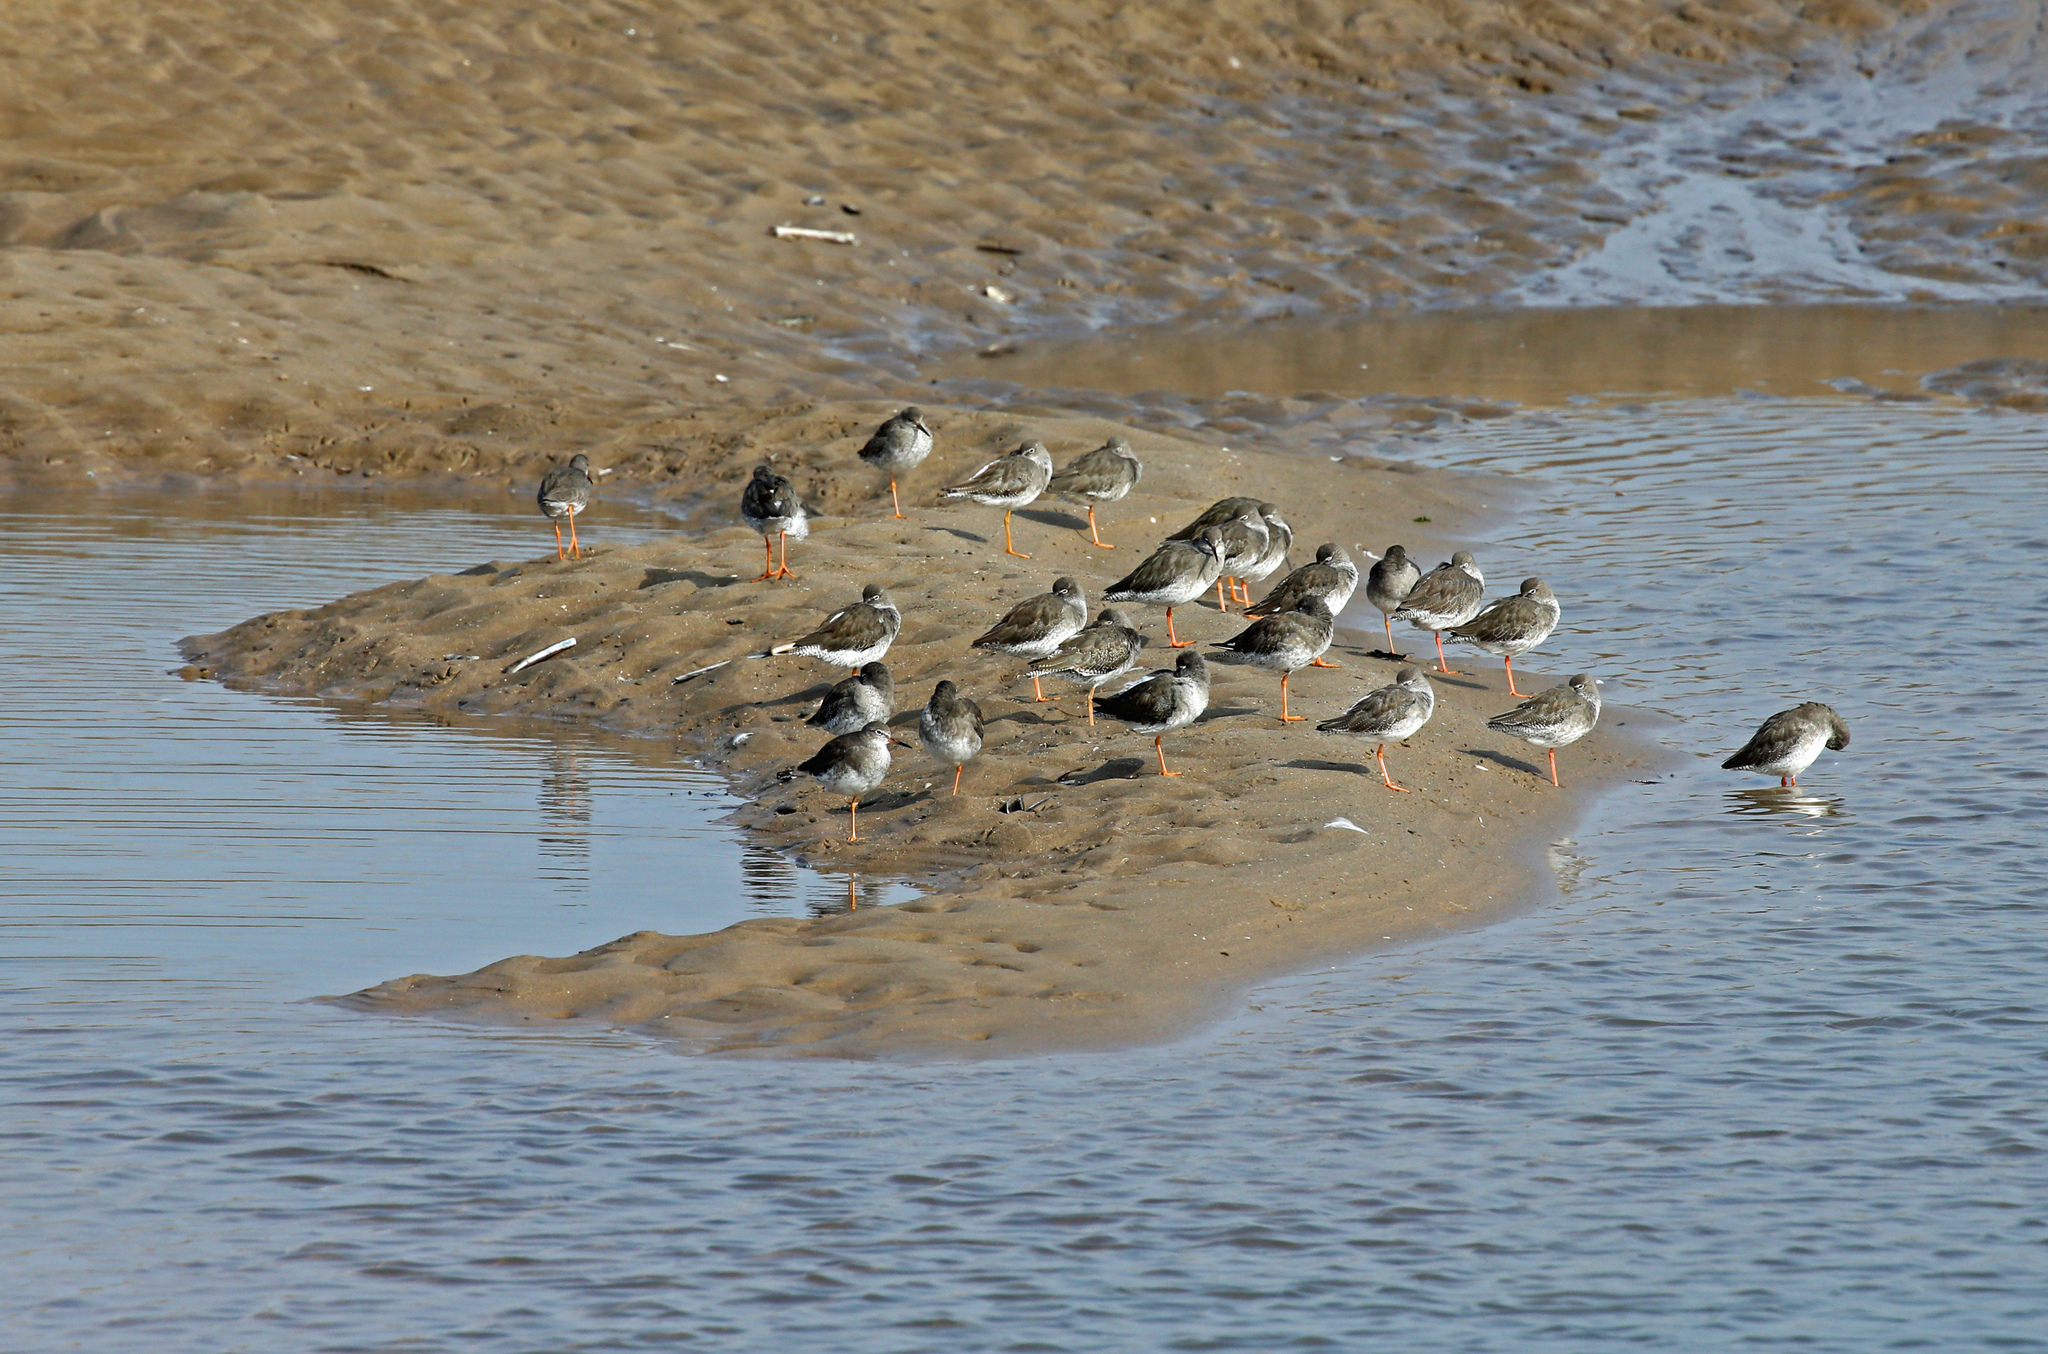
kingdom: Animalia
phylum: Chordata
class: Aves
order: Charadriiformes
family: Scolopacidae
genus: Tringa
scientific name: Tringa totanus
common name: Common redshank
